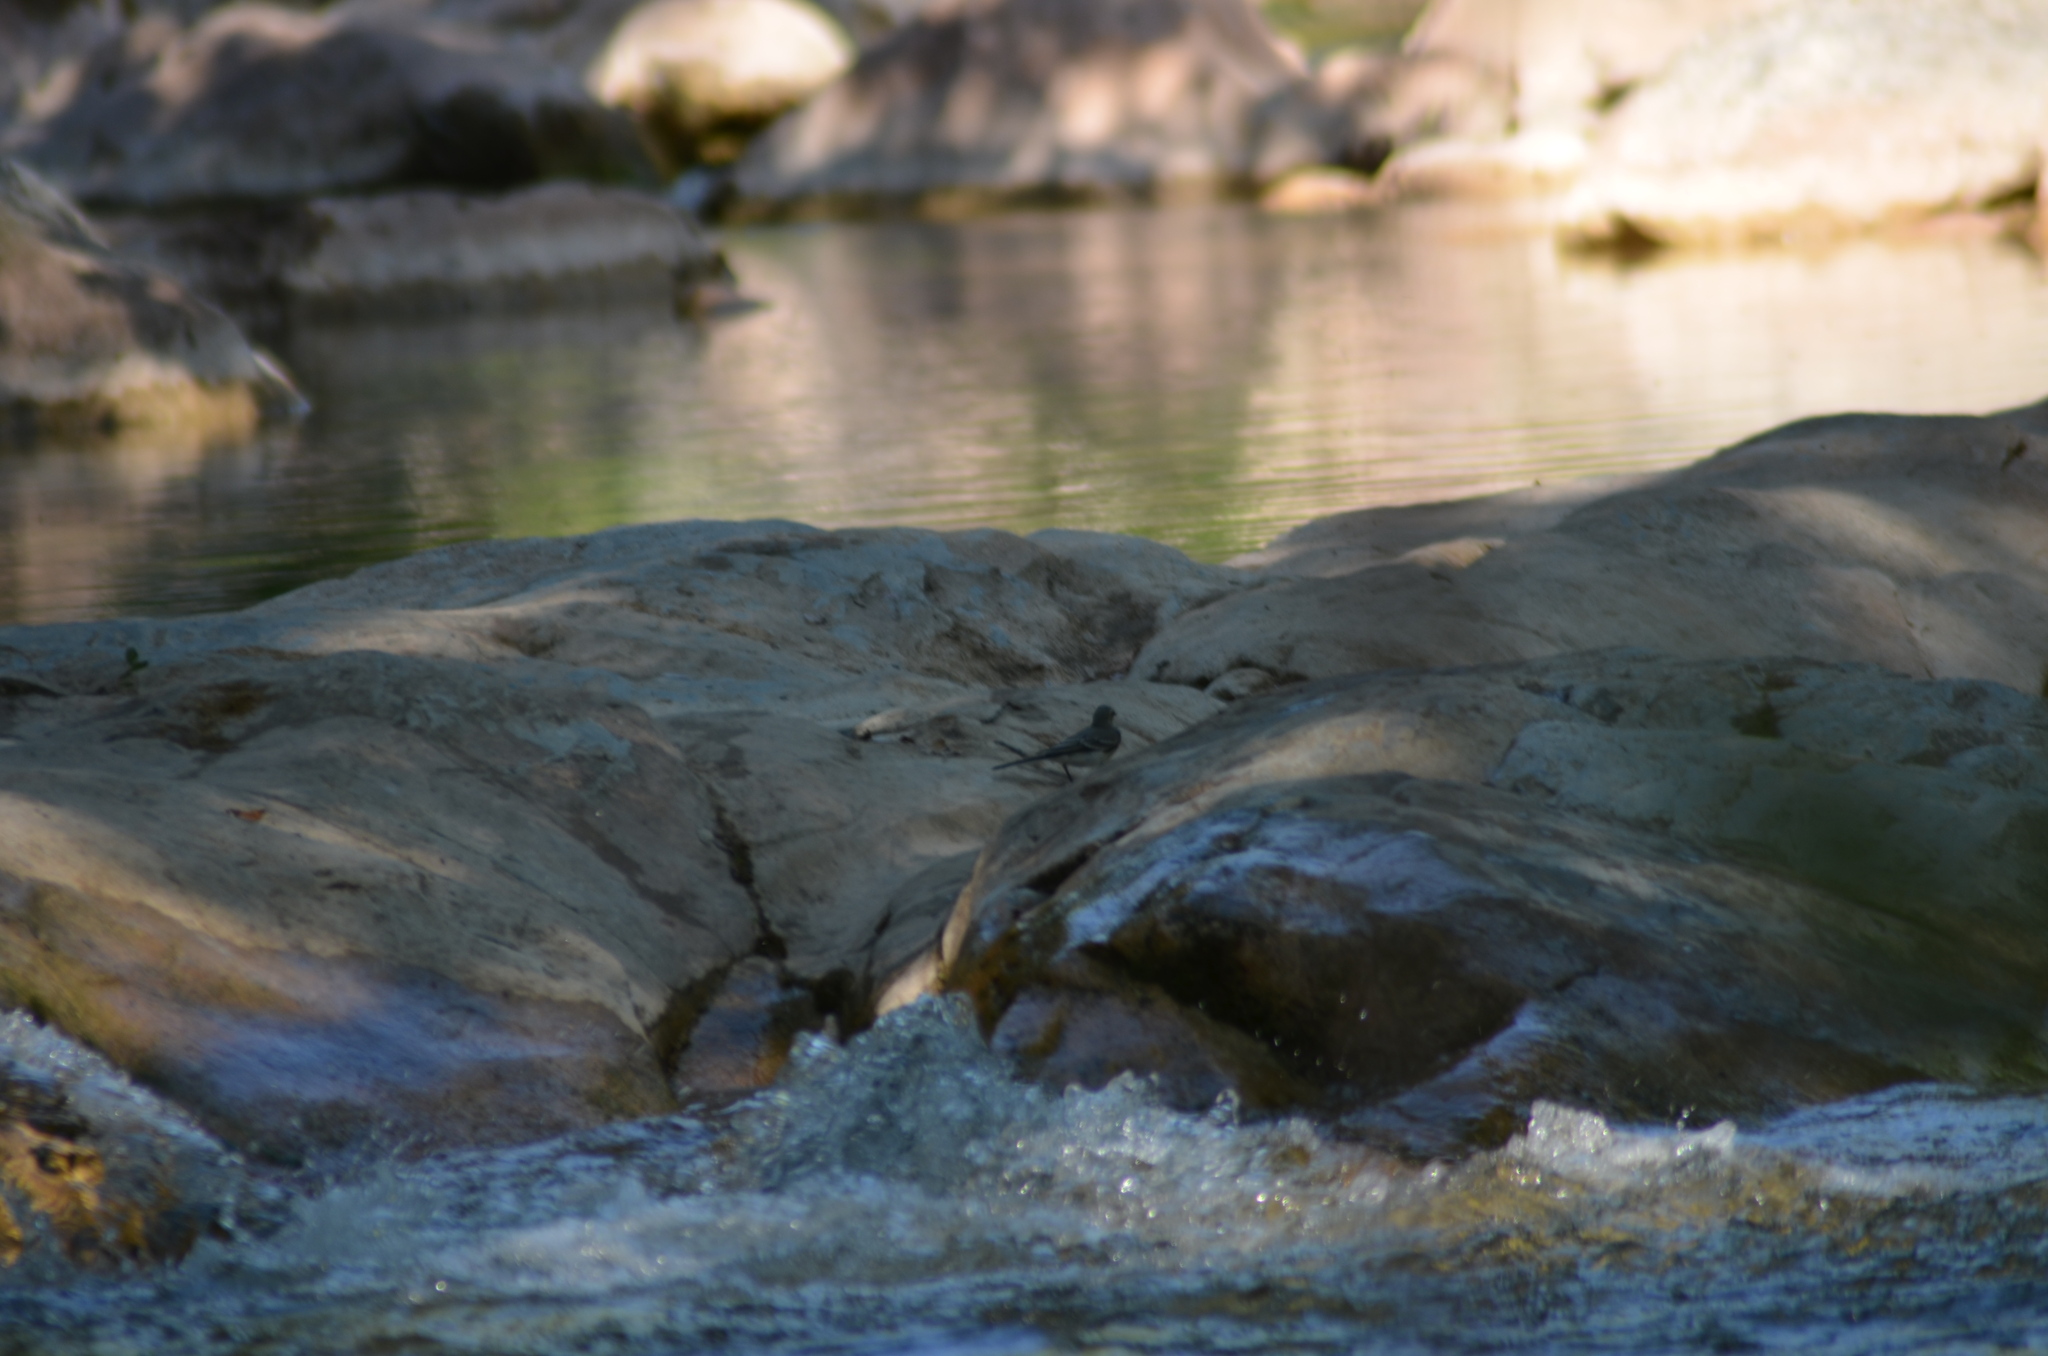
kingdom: Animalia
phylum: Chordata
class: Aves
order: Passeriformes
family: Motacillidae
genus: Motacilla
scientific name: Motacilla alba
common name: White wagtail
